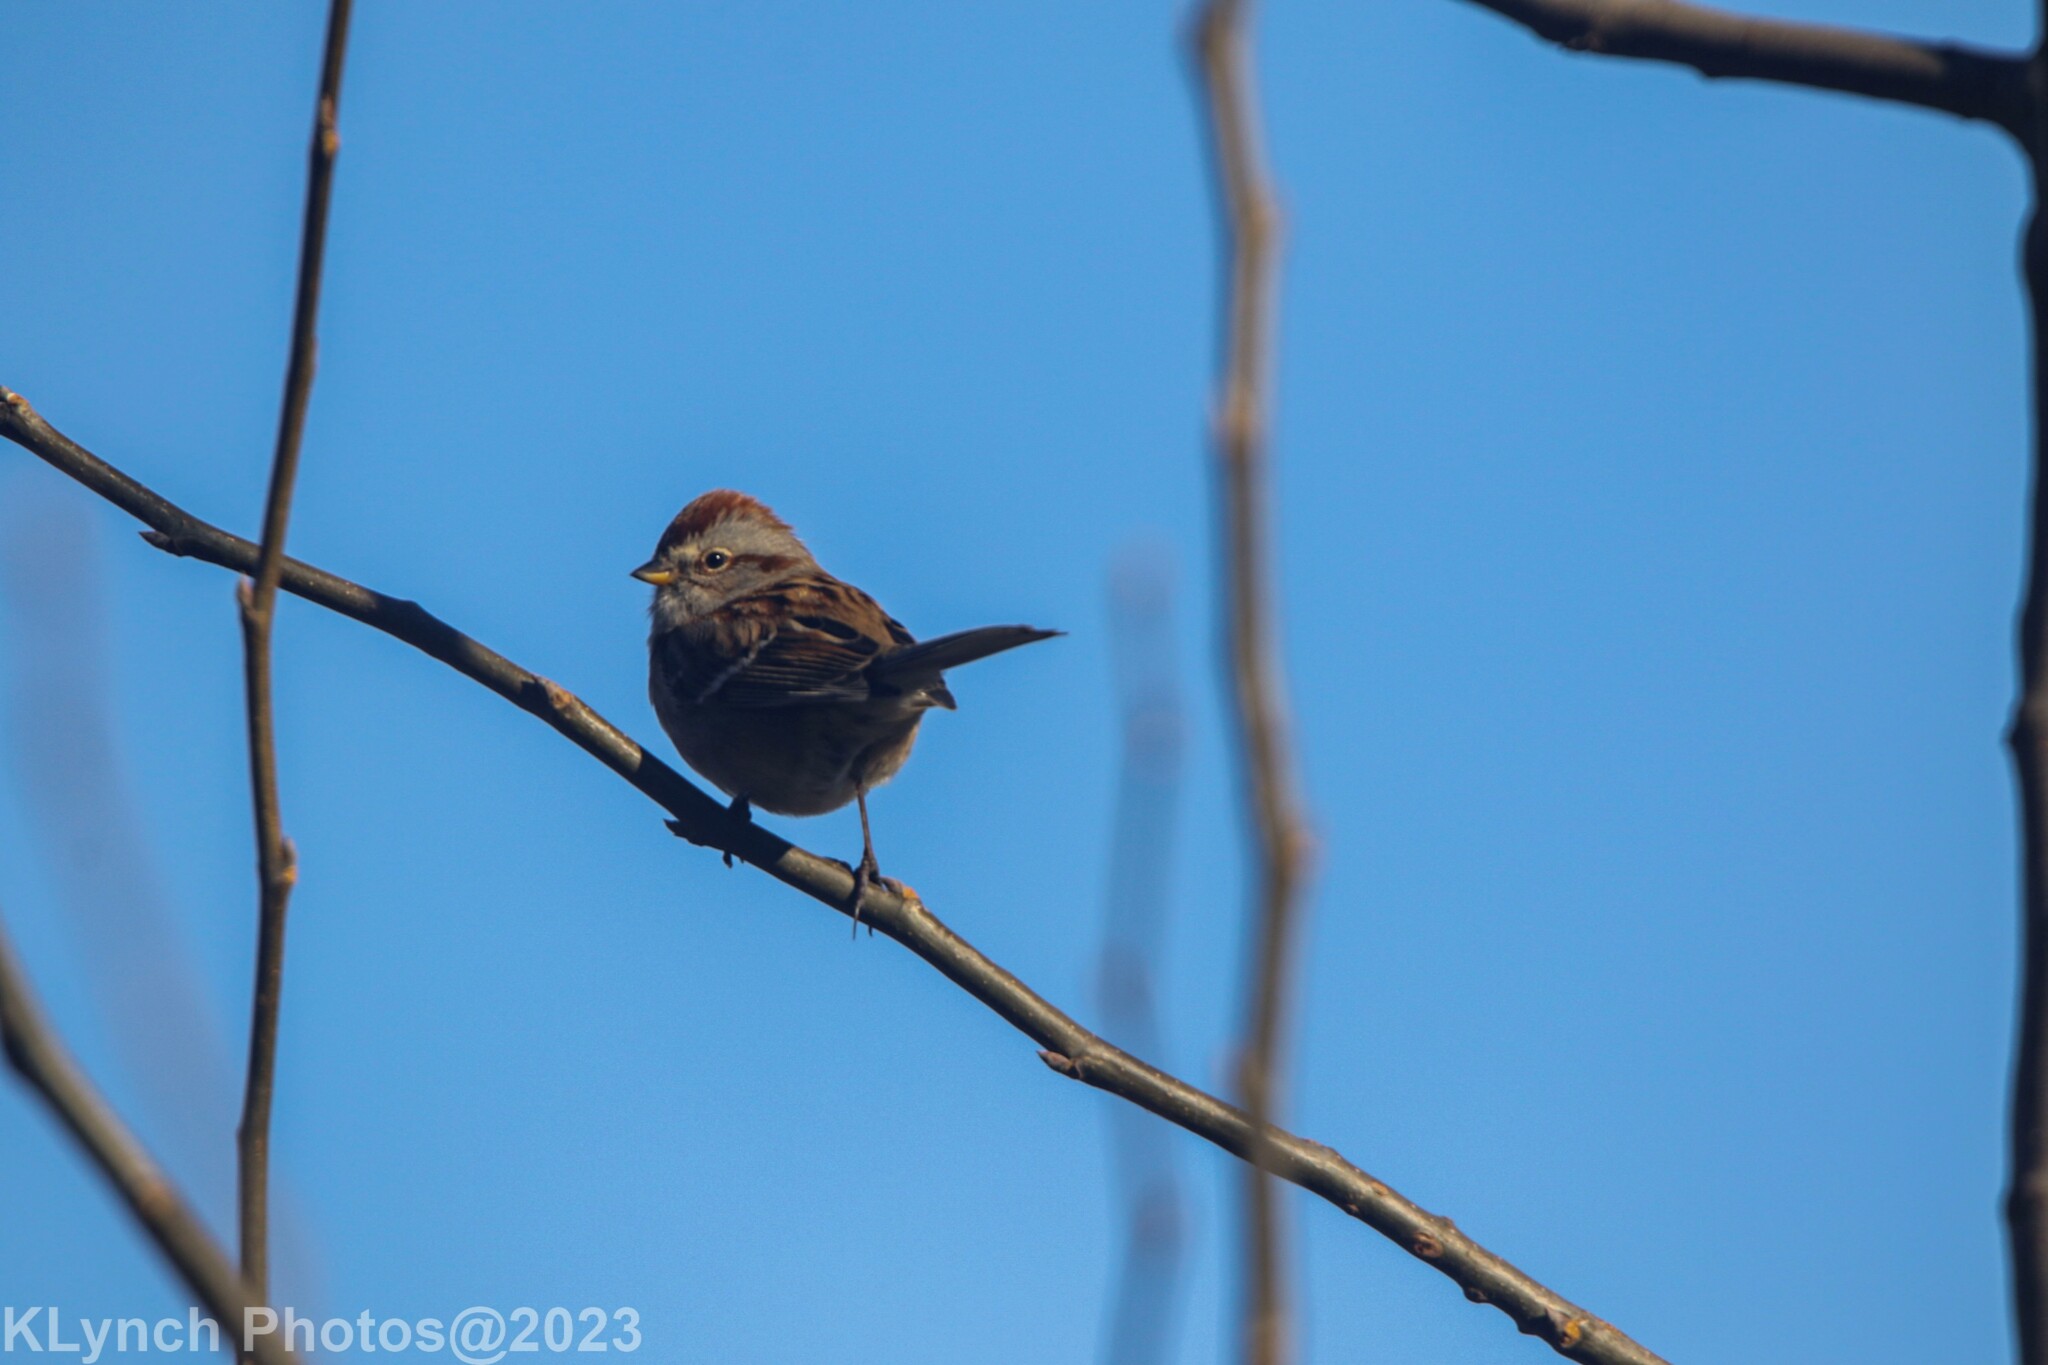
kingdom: Animalia
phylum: Chordata
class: Aves
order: Passeriformes
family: Passerellidae
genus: Spizelloides
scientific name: Spizelloides arborea
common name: American tree sparrow
